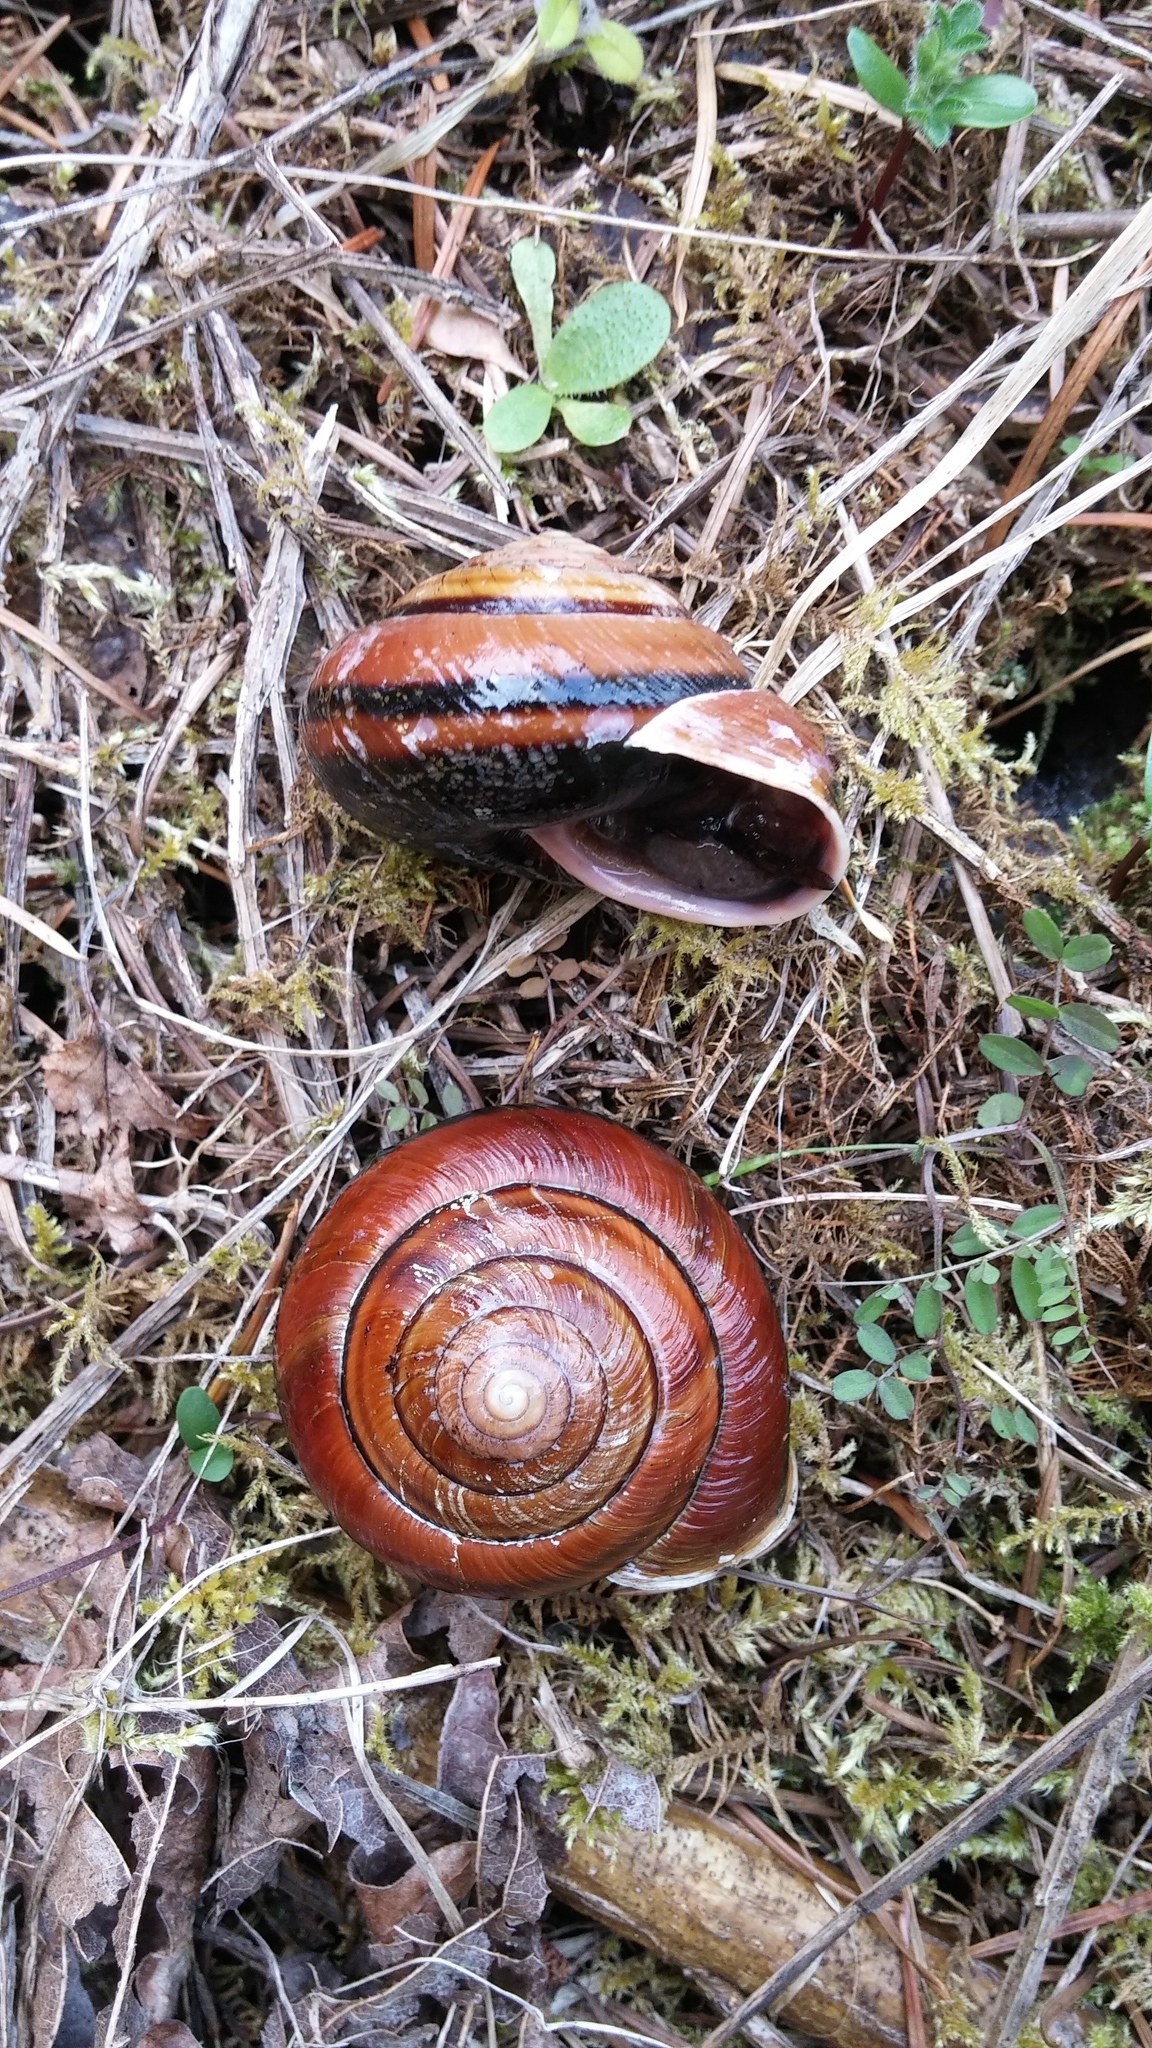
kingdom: Animalia
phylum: Mollusca
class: Gastropoda
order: Stylommatophora
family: Xanthonychidae
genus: Monadenia
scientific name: Monadenia fidelis
